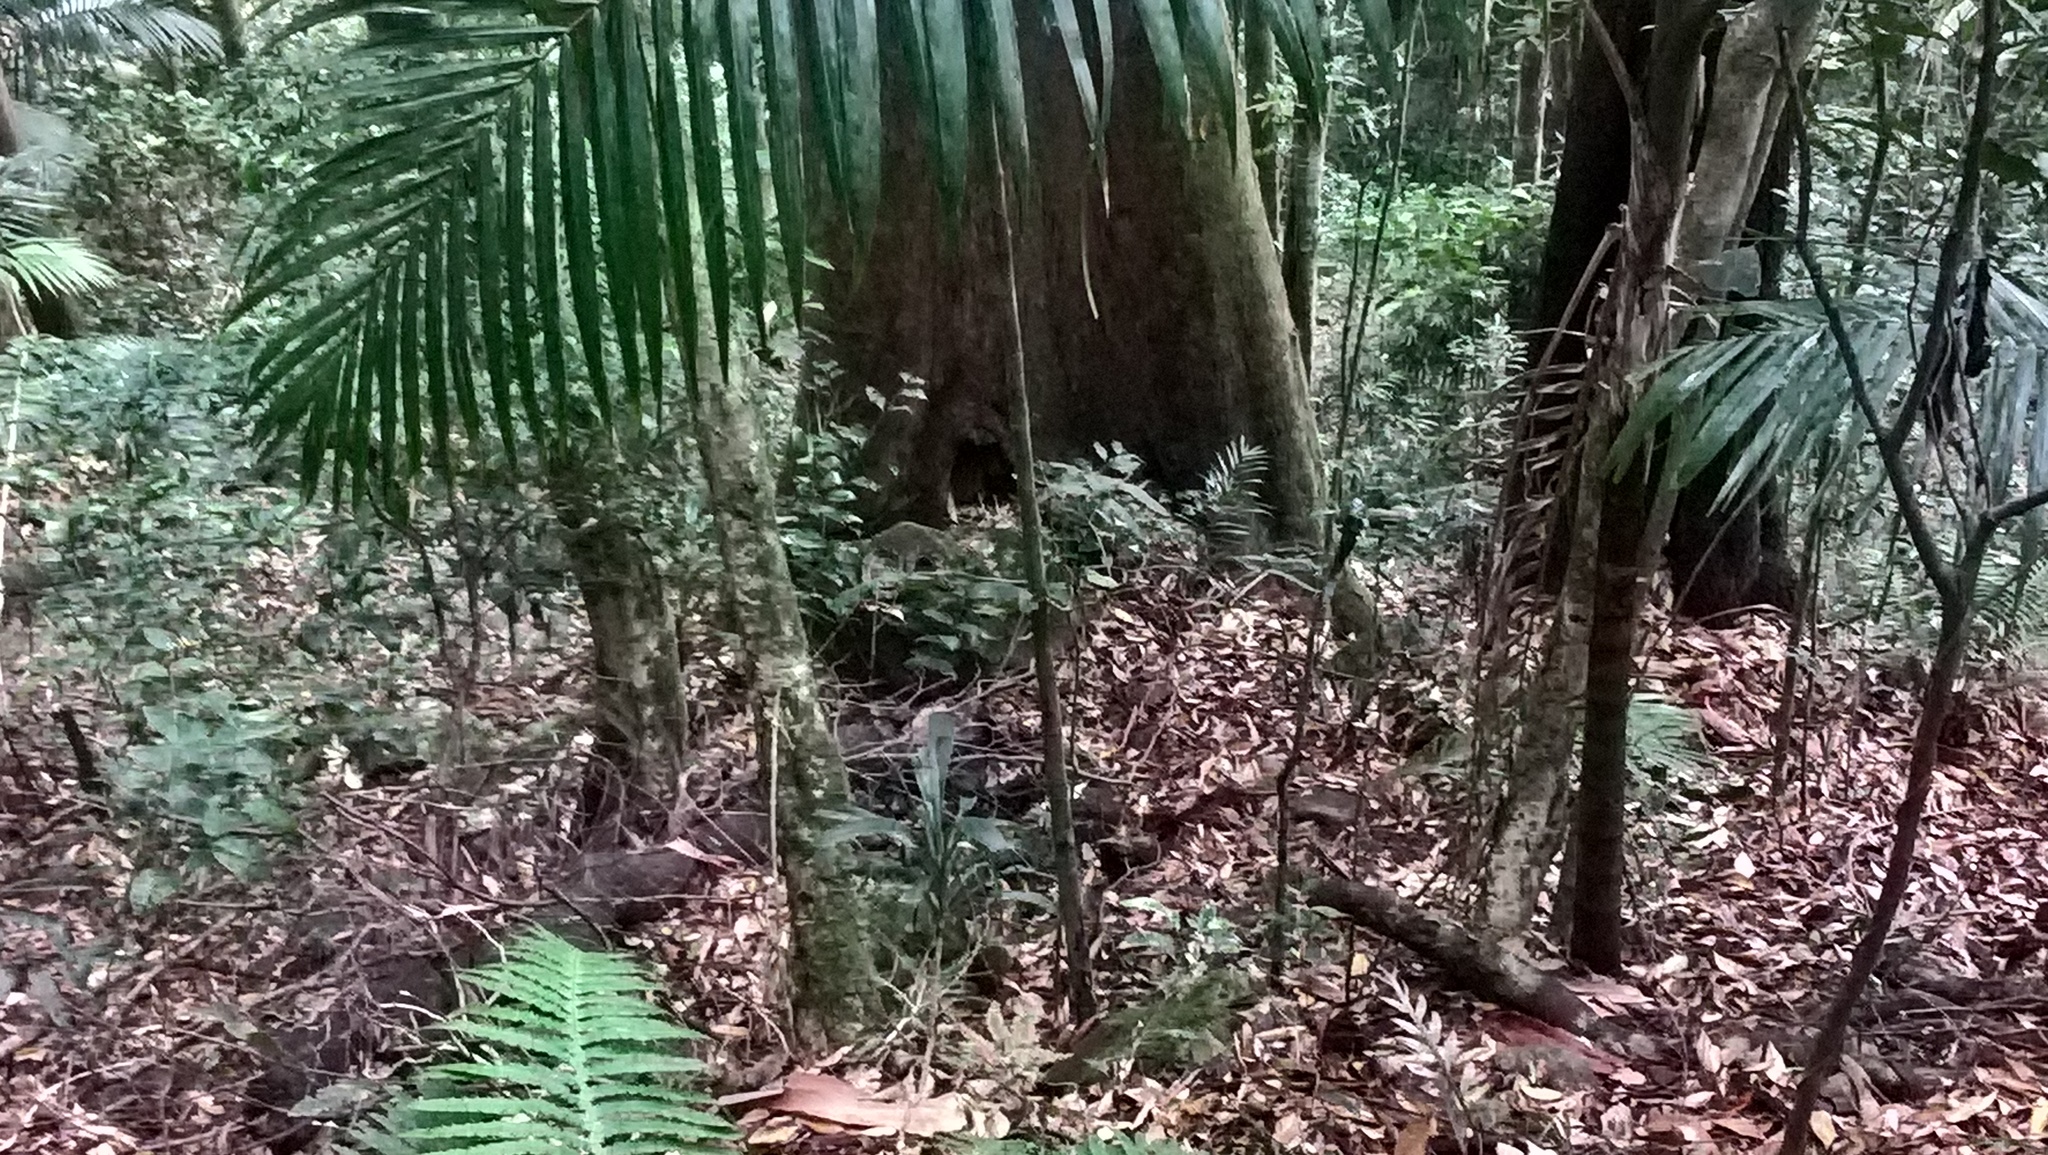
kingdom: Animalia
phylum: Chordata
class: Squamata
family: Pythonidae
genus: Morelia
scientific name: Morelia spilota
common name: Carpet python
